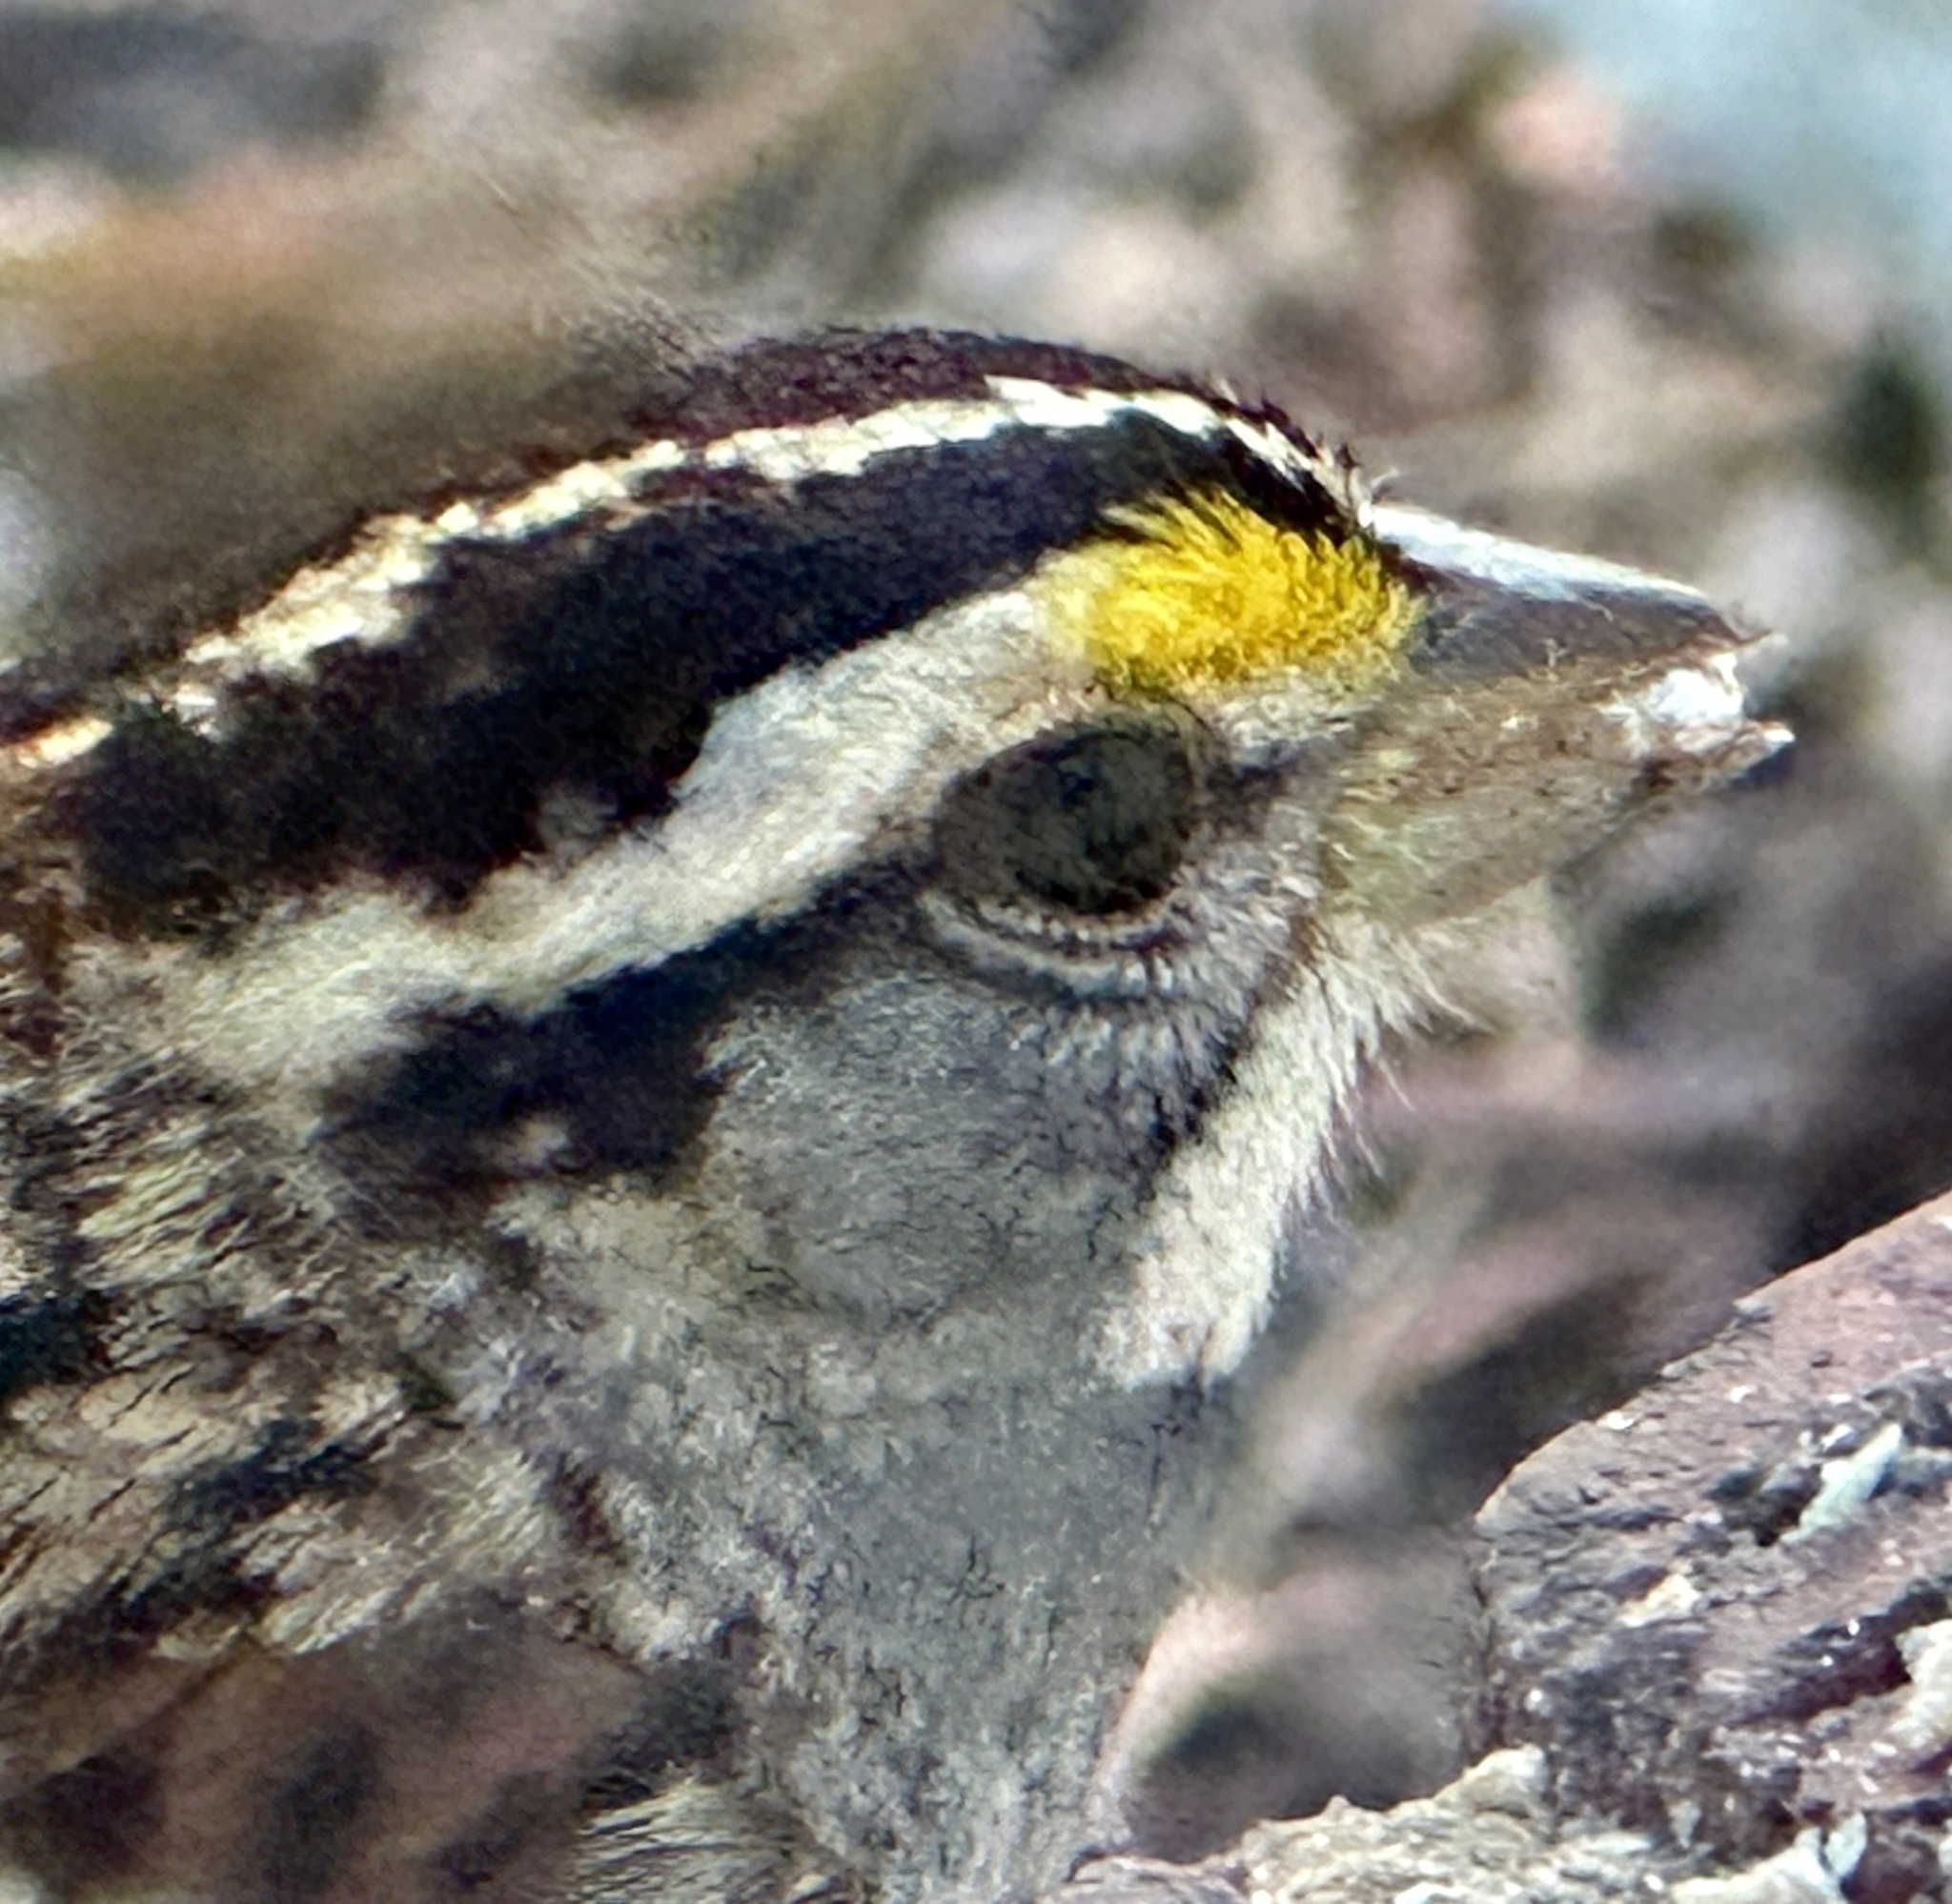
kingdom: Animalia
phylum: Chordata
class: Aves
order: Passeriformes
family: Passerellidae
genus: Zonotrichia
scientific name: Zonotrichia albicollis
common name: White-throated sparrow
